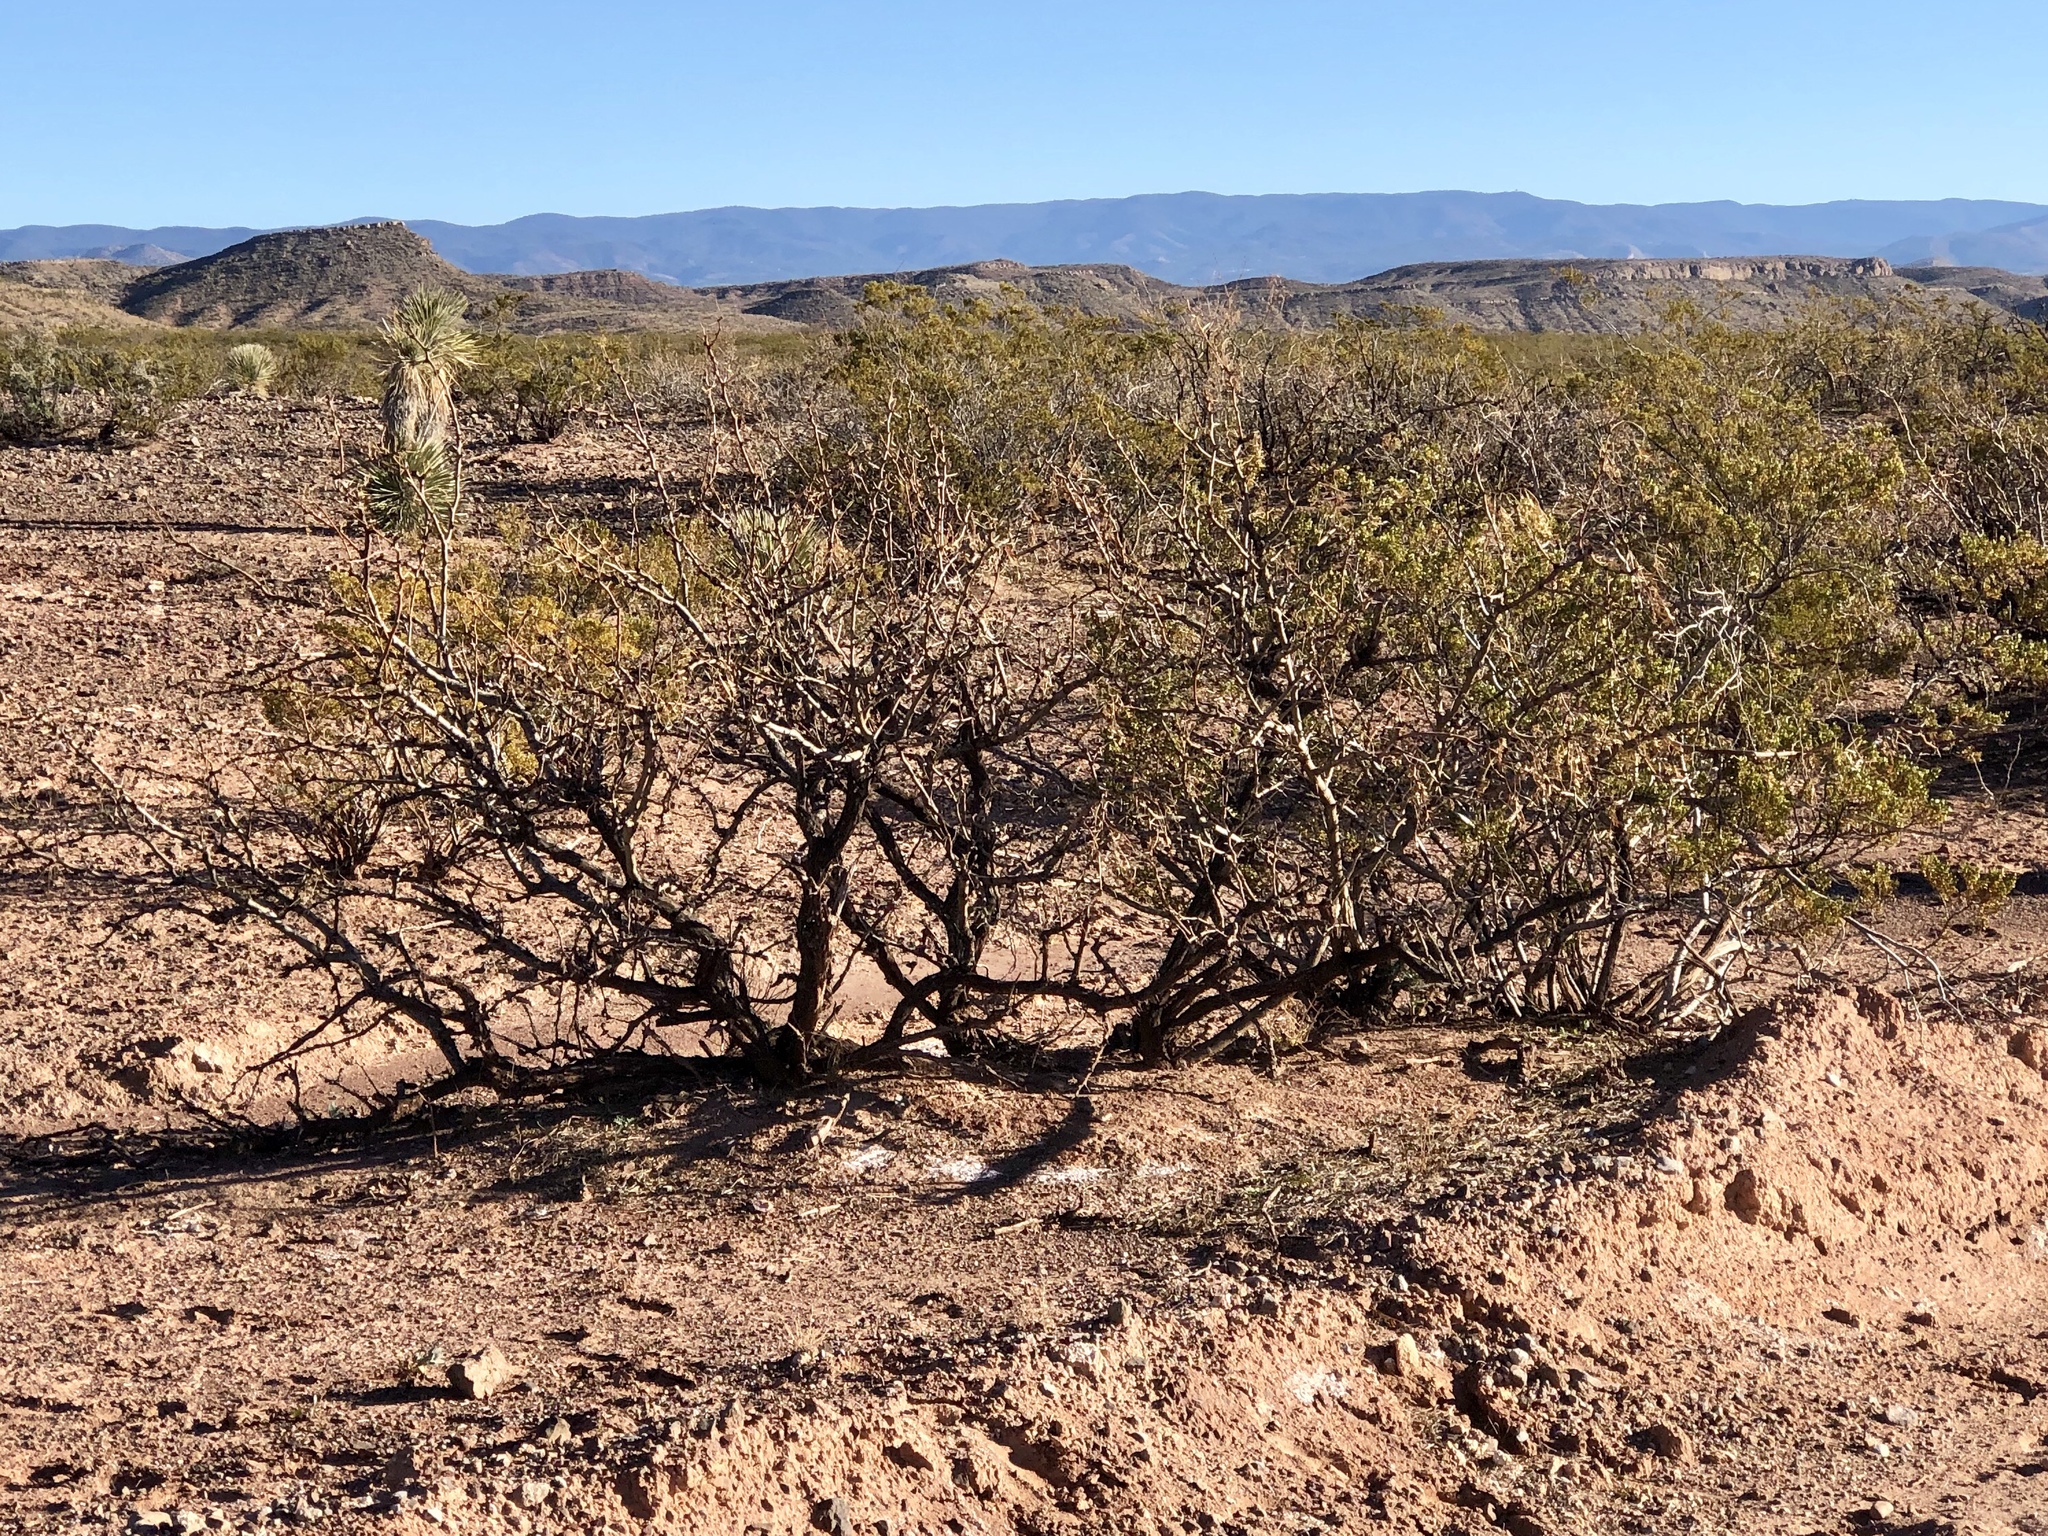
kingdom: Plantae
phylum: Tracheophyta
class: Magnoliopsida
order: Zygophyllales
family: Zygophyllaceae
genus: Larrea
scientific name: Larrea tridentata
